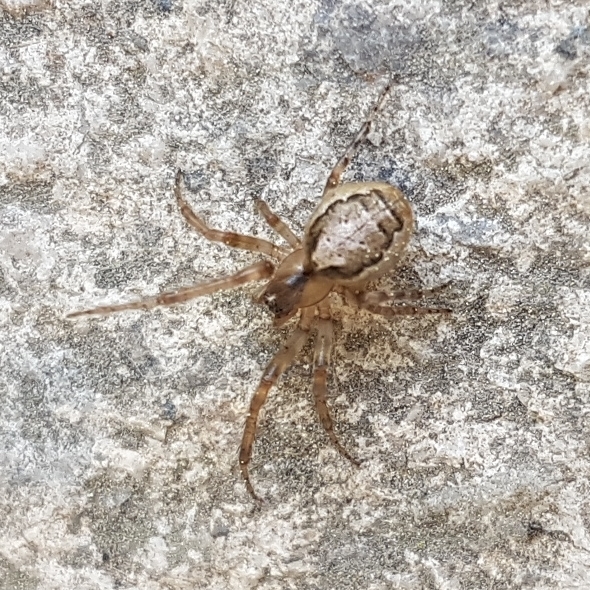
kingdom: Animalia
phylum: Arthropoda
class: Arachnida
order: Araneae
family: Araneidae
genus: Zygiella
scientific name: Zygiella x-notata
